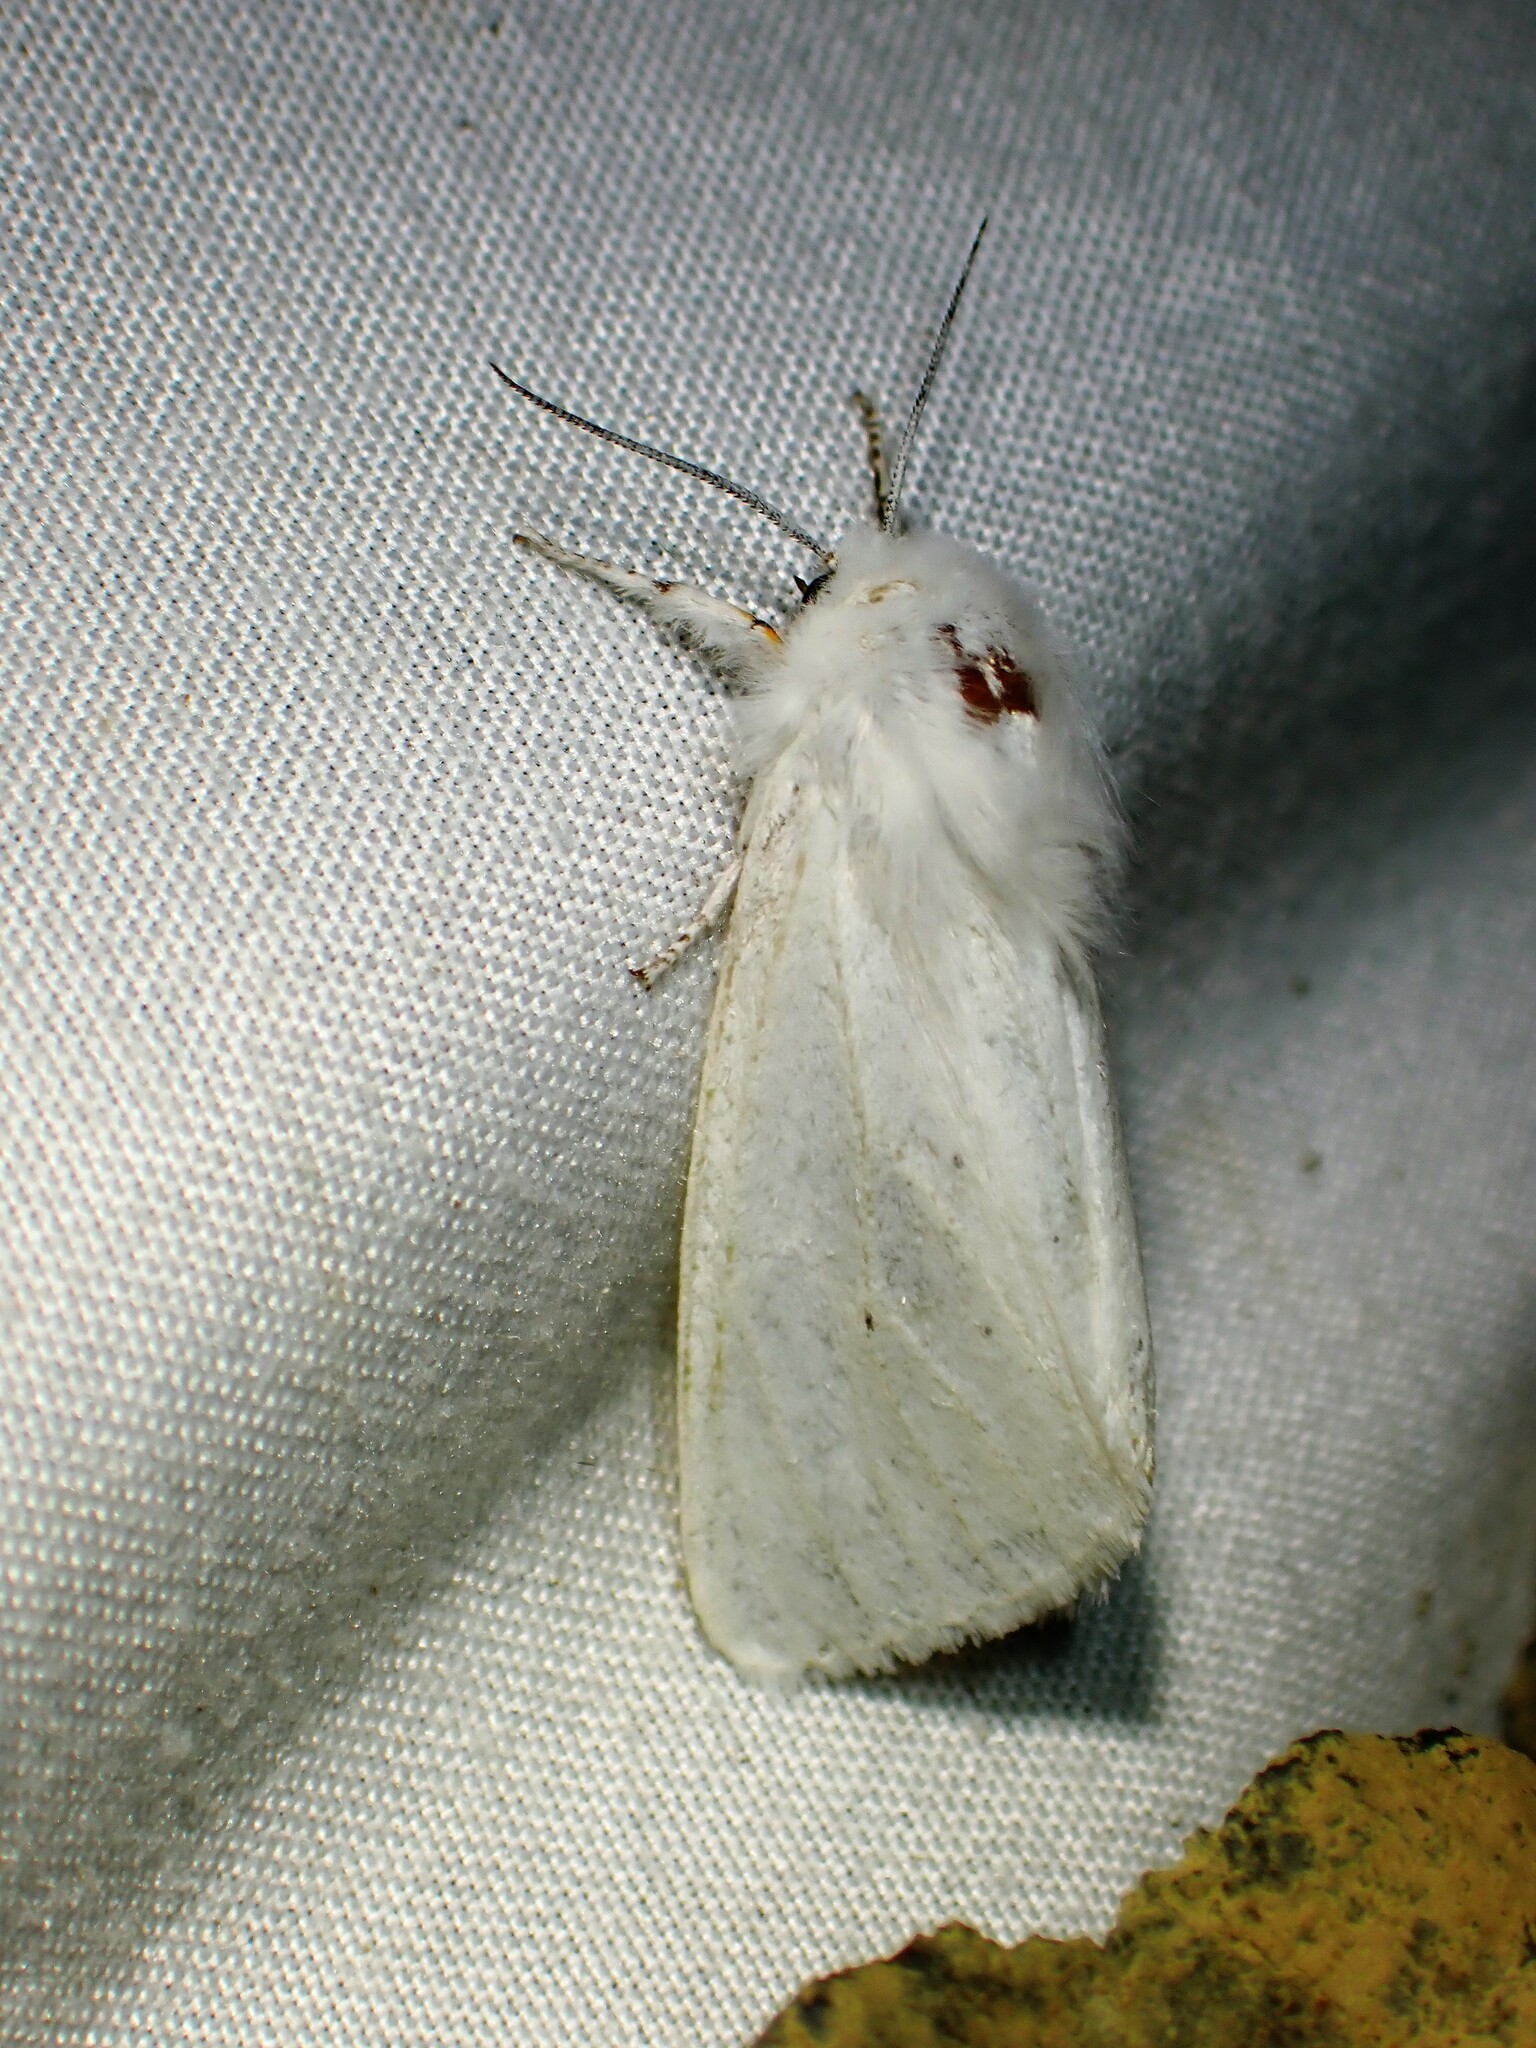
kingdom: Animalia
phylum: Arthropoda
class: Insecta
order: Lepidoptera
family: Erebidae
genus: Spilosoma
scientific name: Spilosoma virginica
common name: Virginia tiger moth
